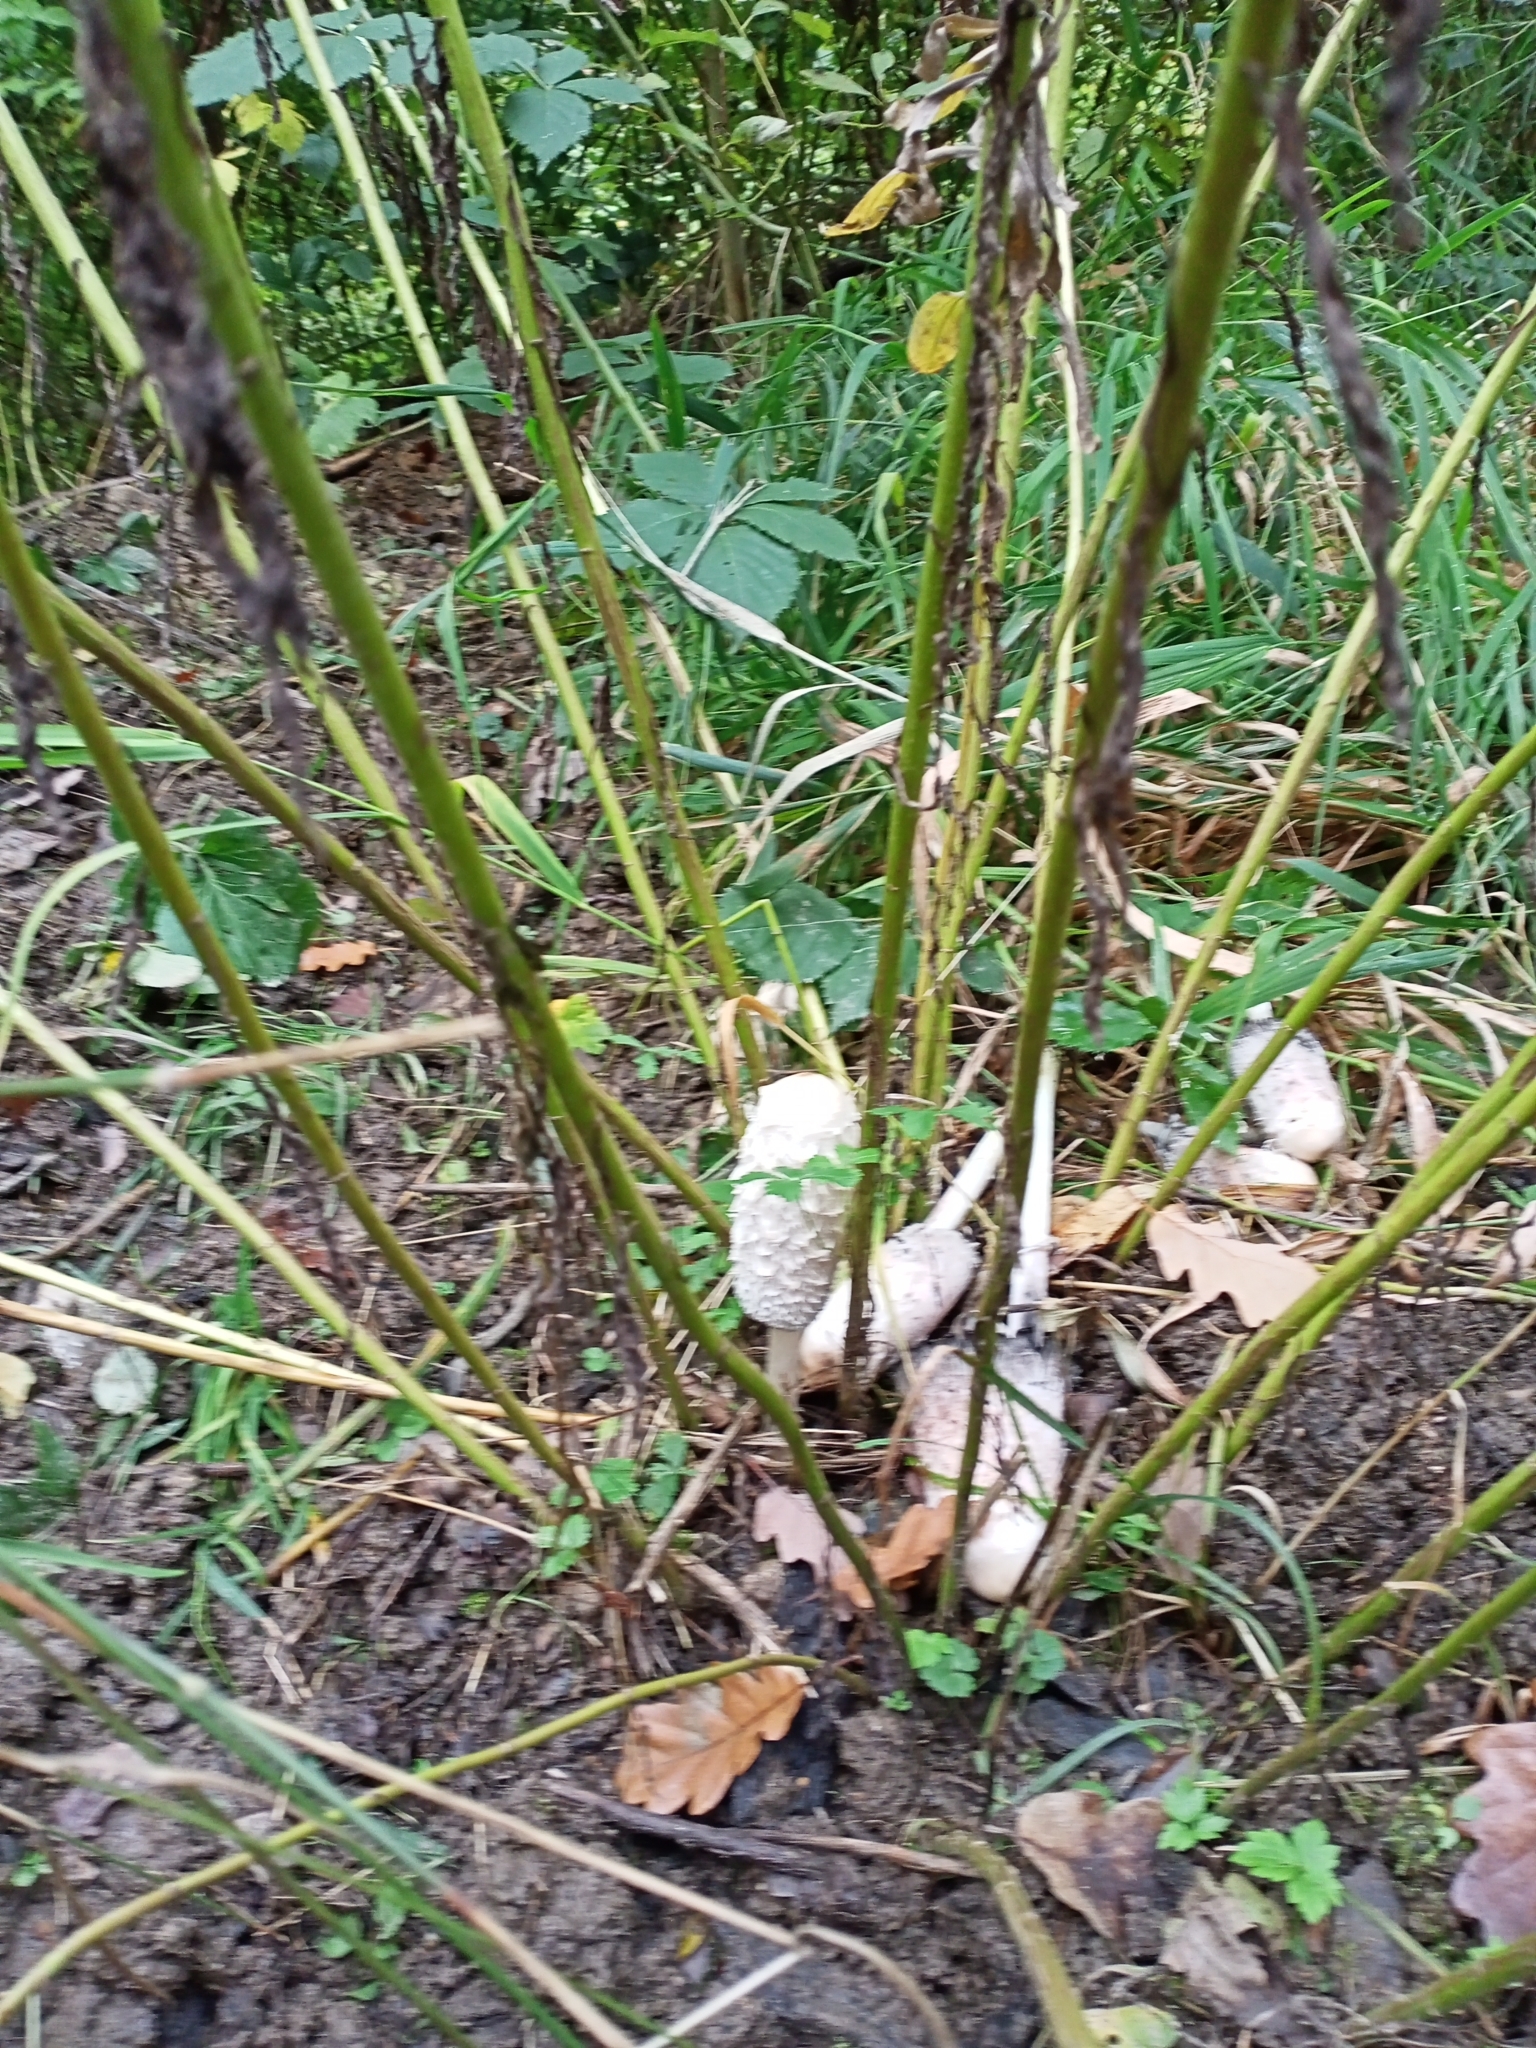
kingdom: Fungi
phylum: Basidiomycota
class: Agaricomycetes
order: Agaricales
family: Agaricaceae
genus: Coprinus
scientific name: Coprinus comatus
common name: Lawyer's wig
